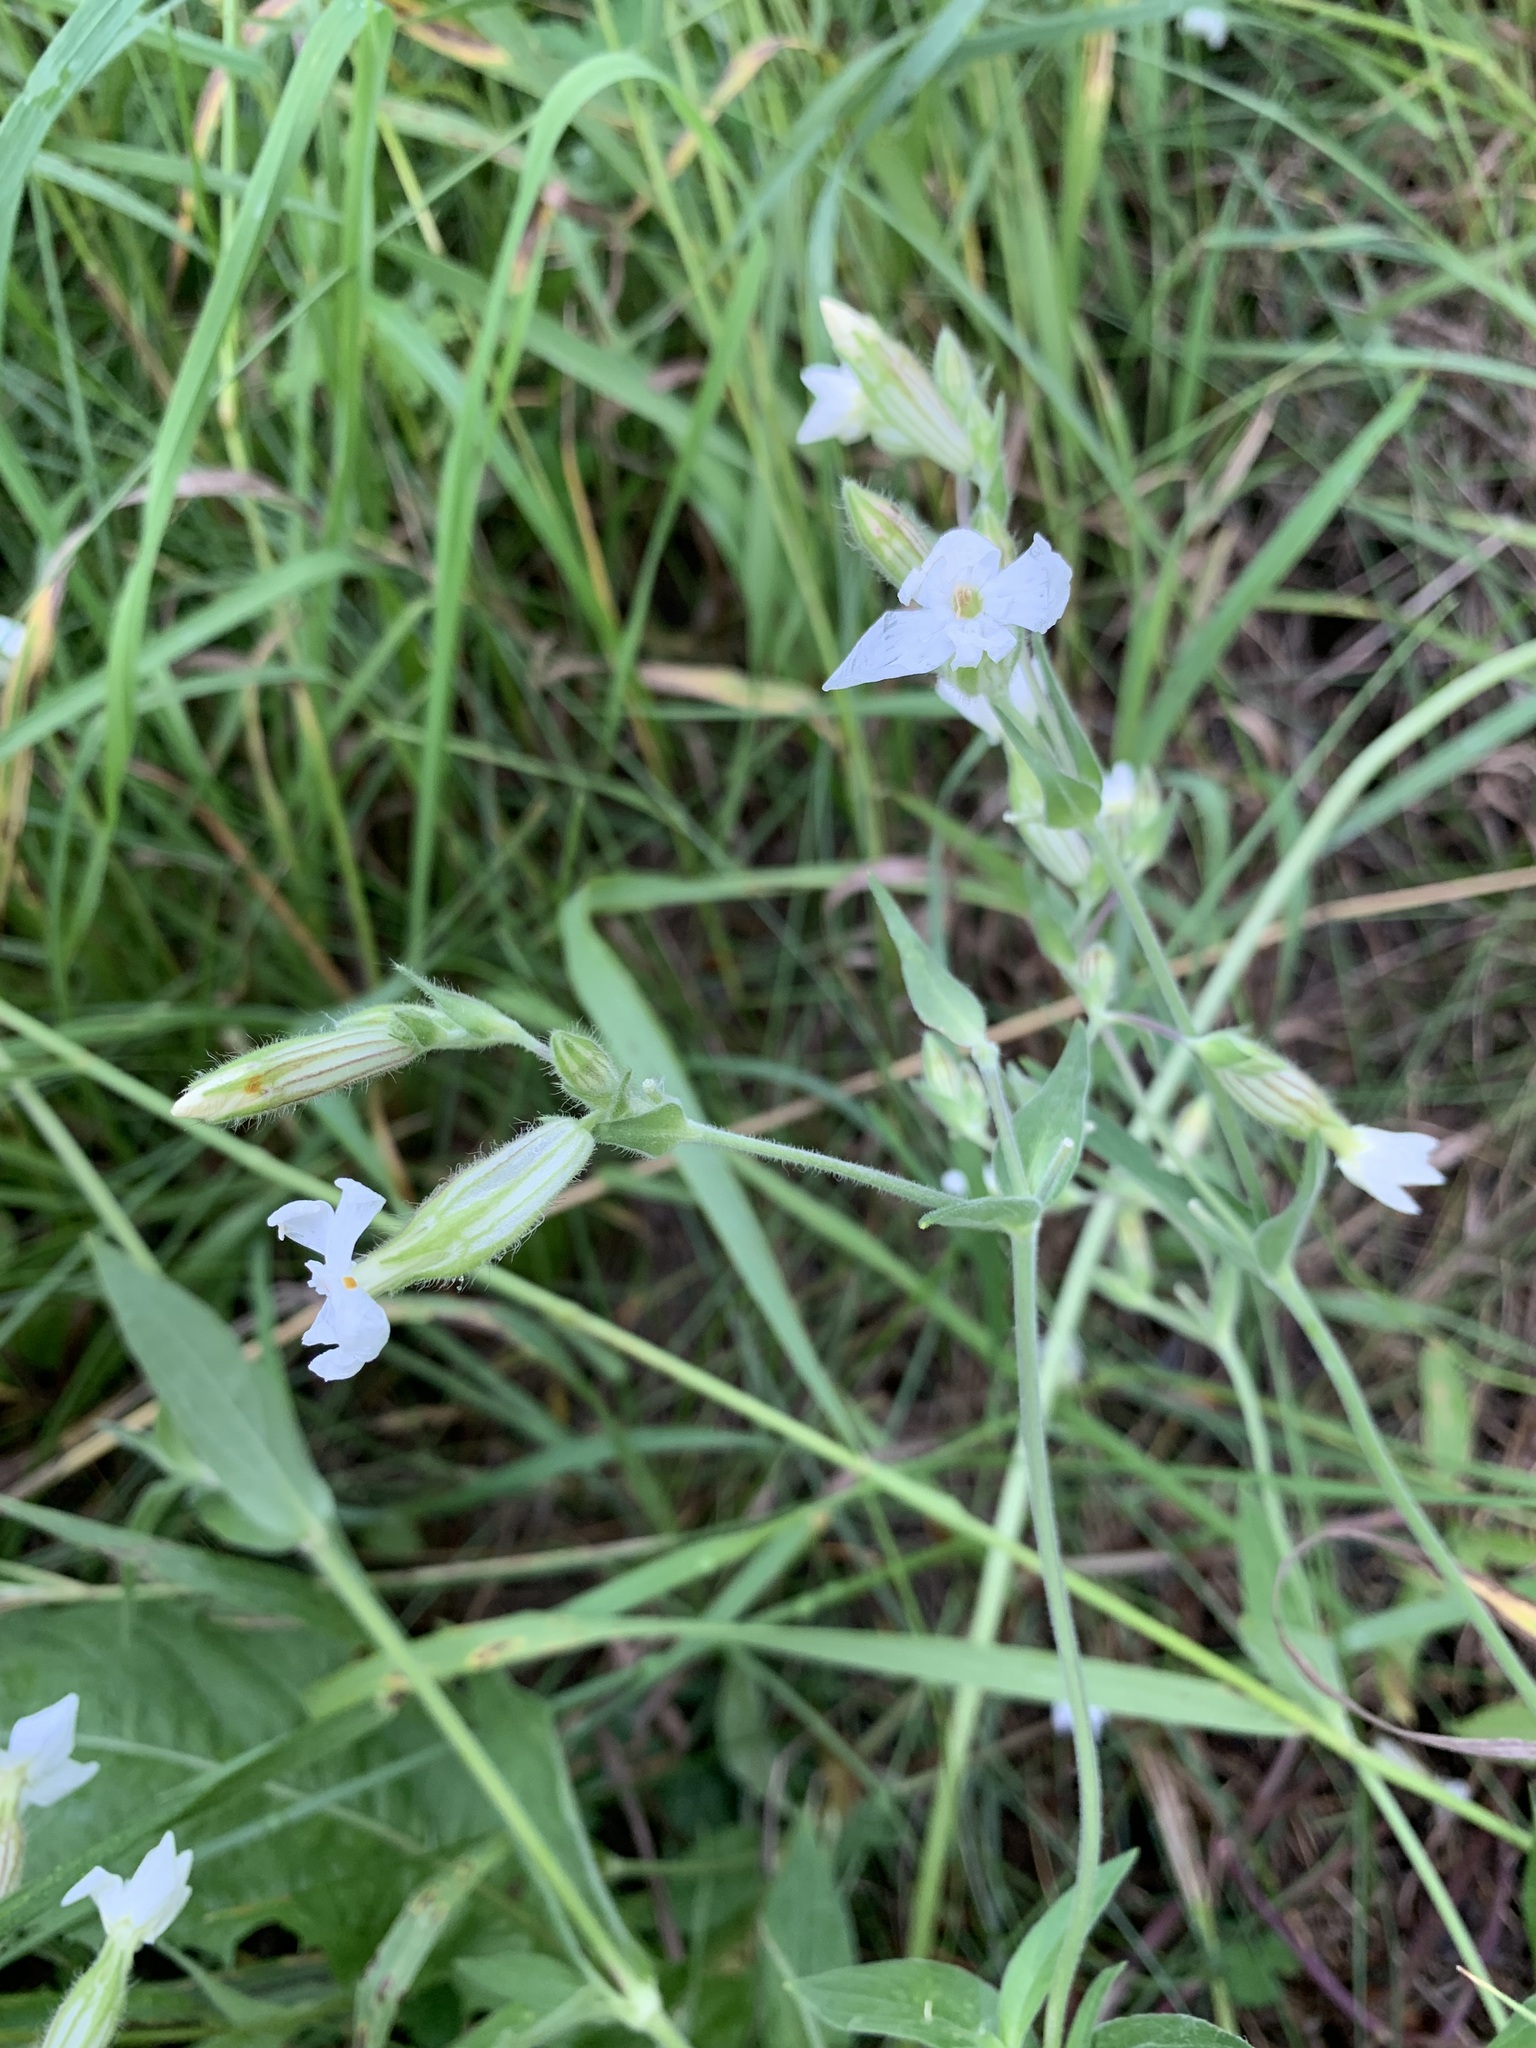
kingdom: Plantae
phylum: Tracheophyta
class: Magnoliopsida
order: Caryophyllales
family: Caryophyllaceae
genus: Silene
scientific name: Silene latifolia
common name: White campion
